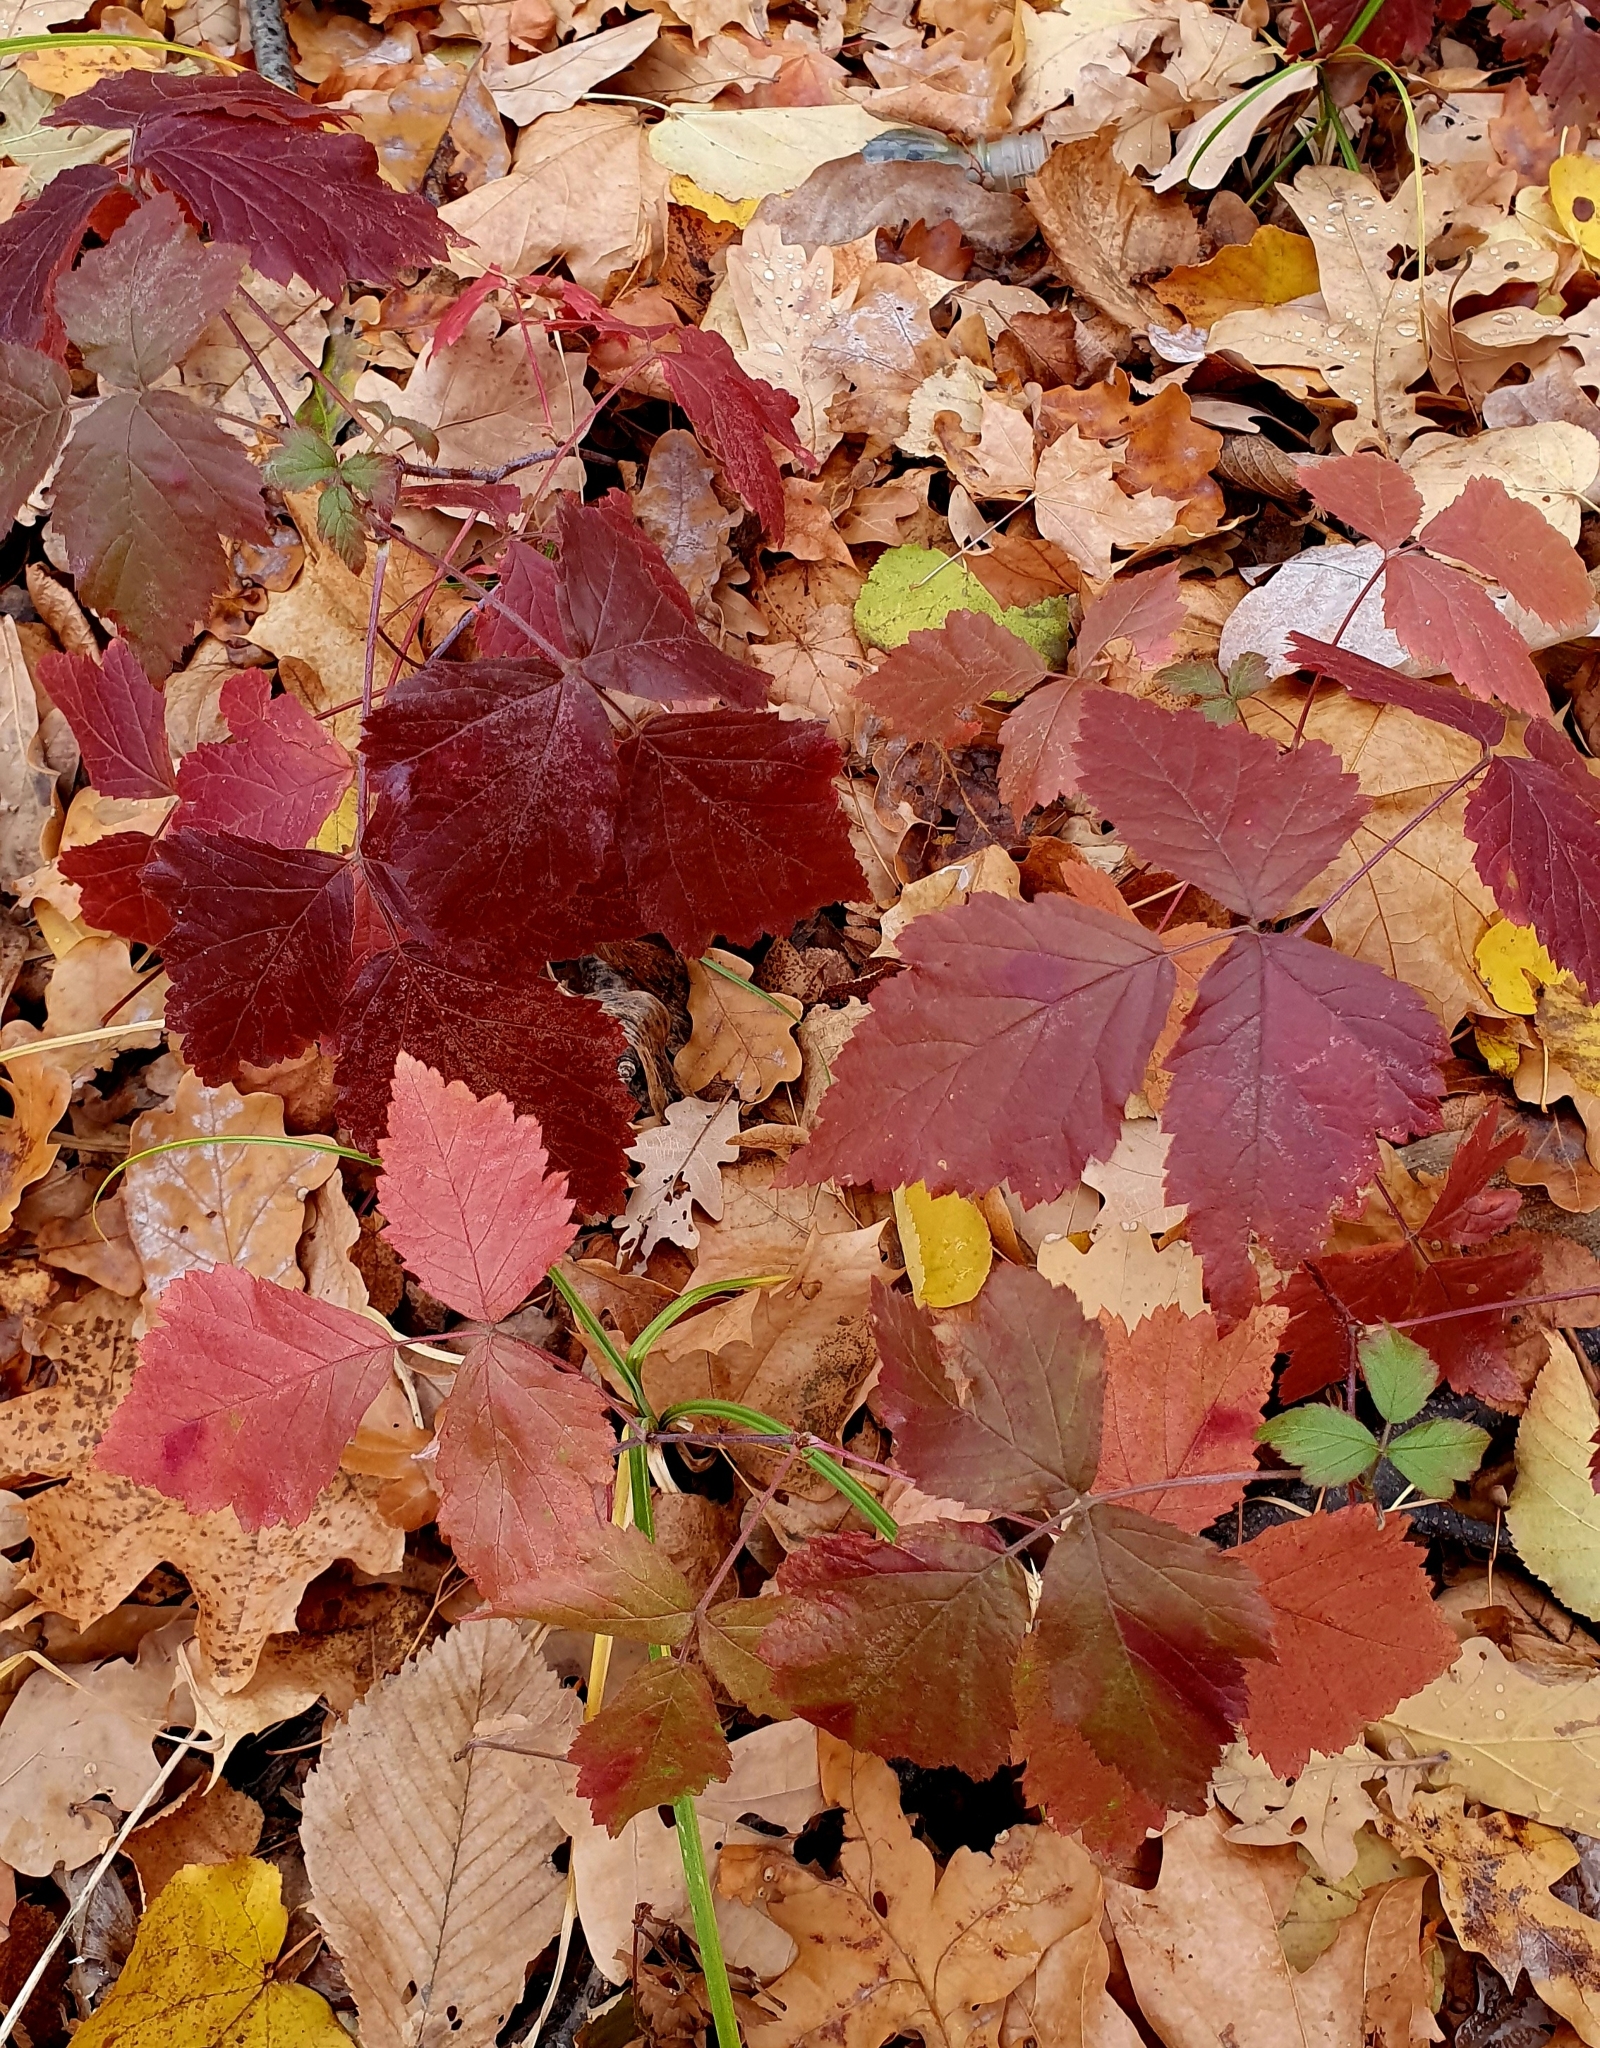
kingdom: Plantae
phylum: Tracheophyta
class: Magnoliopsida
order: Rosales
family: Rosaceae
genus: Rubus
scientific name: Rubus caesius
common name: Dewberry
